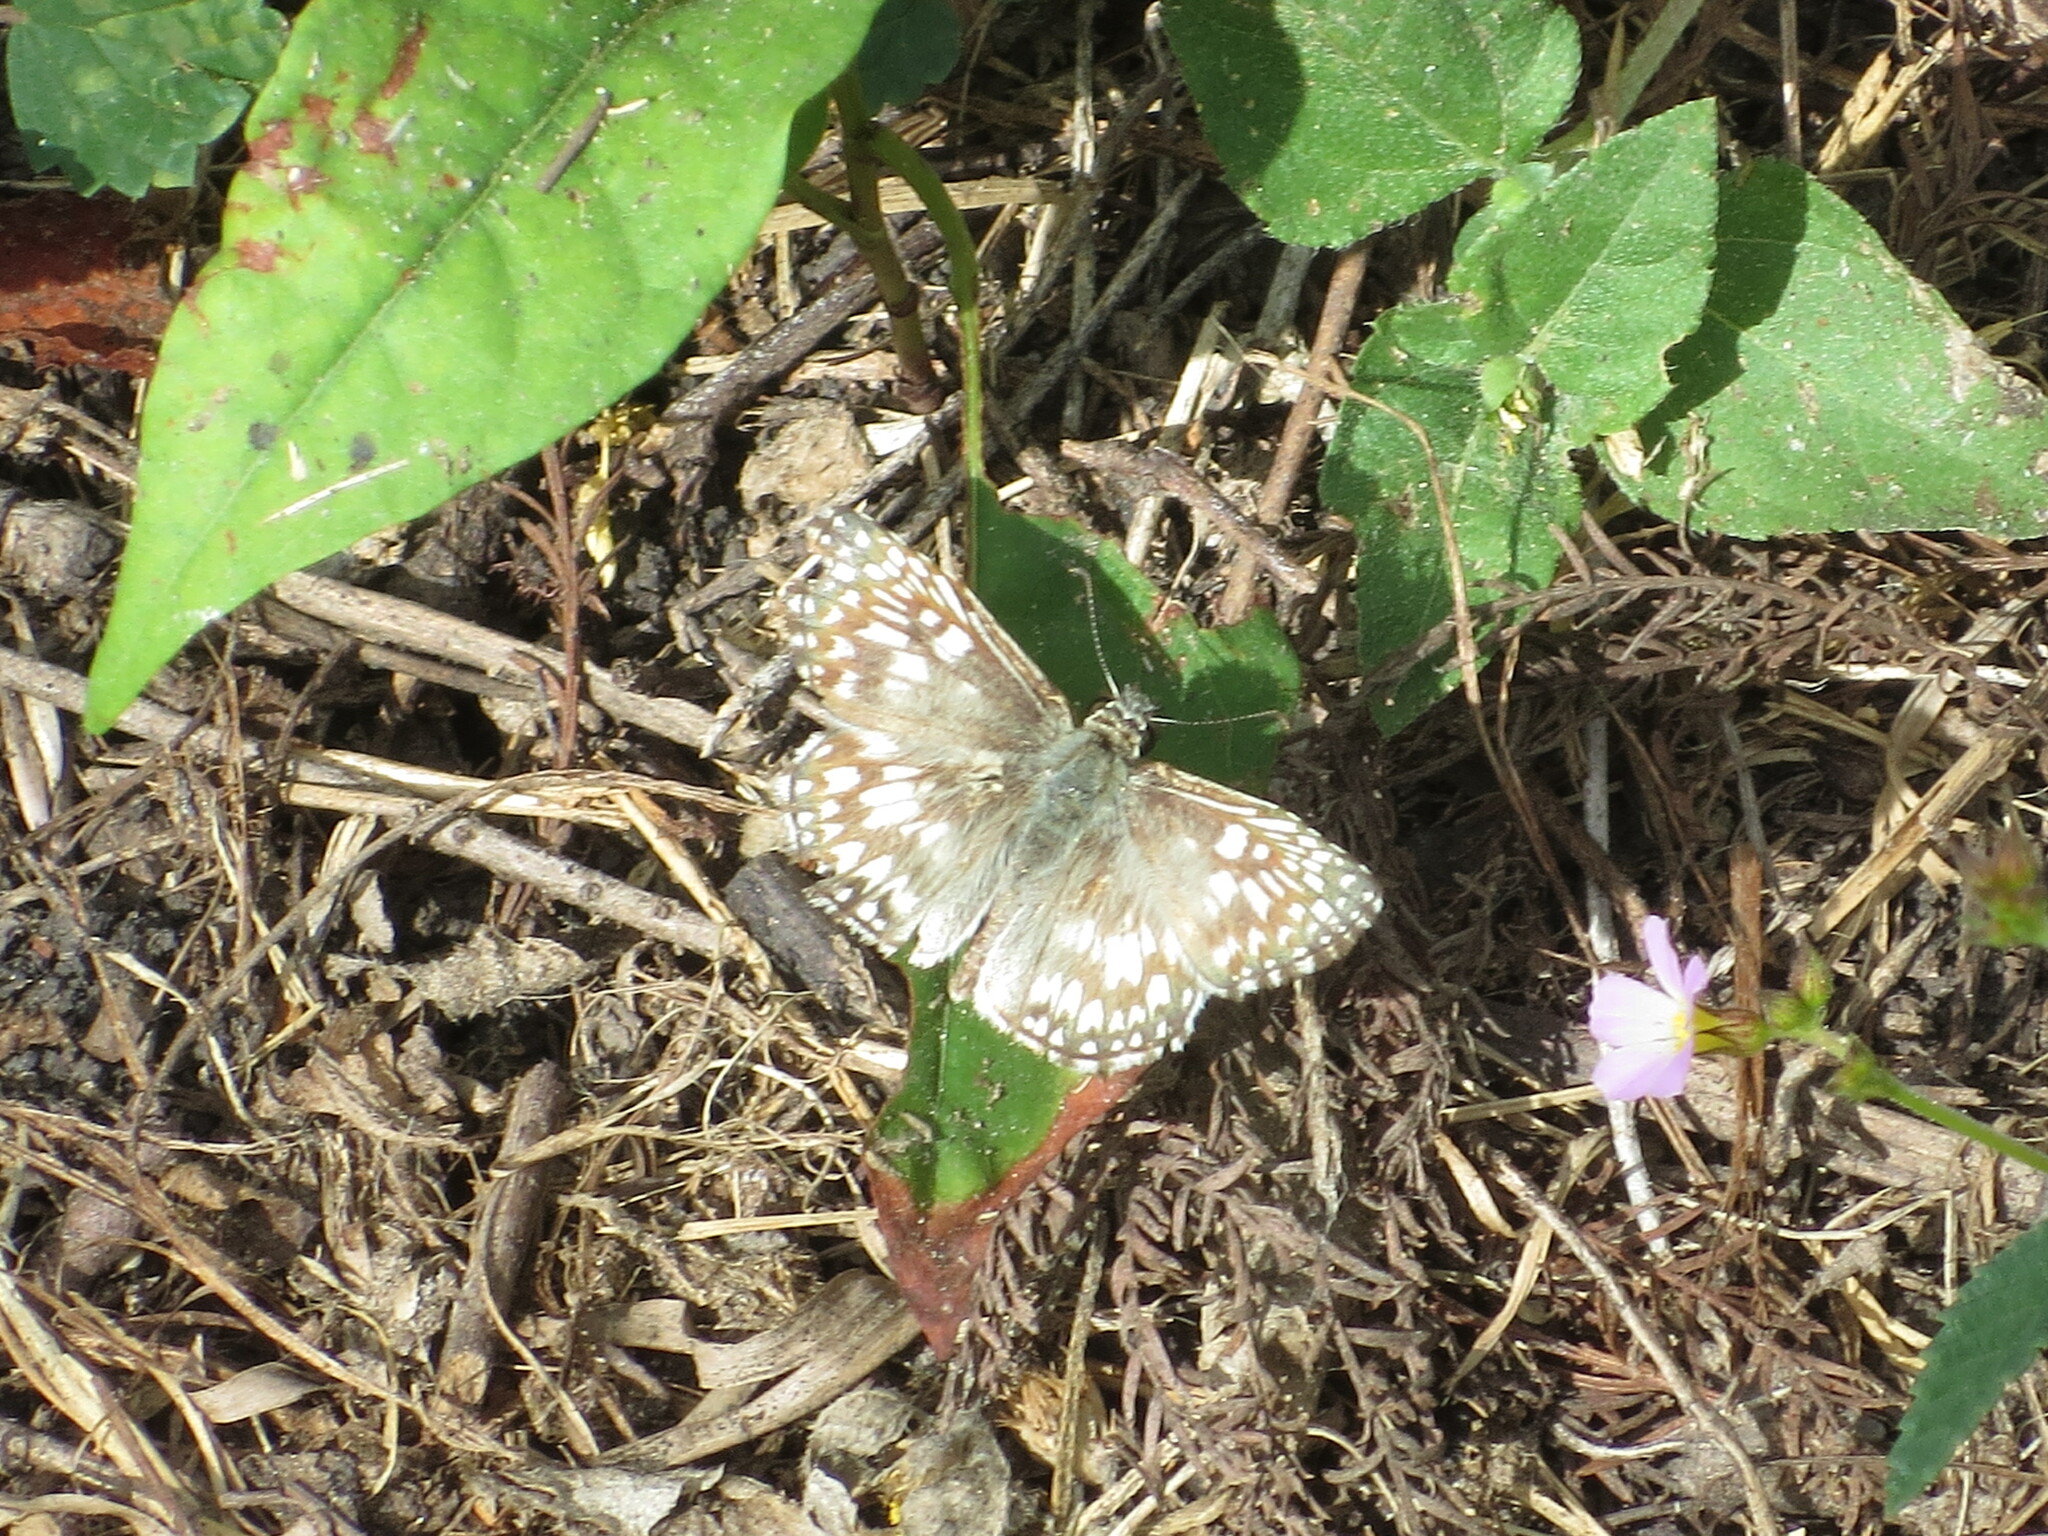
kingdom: Animalia
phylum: Arthropoda
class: Insecta
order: Lepidoptera
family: Hesperiidae
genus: Pyrgus
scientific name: Pyrgus oileus
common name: Tropical checkered-skipper
